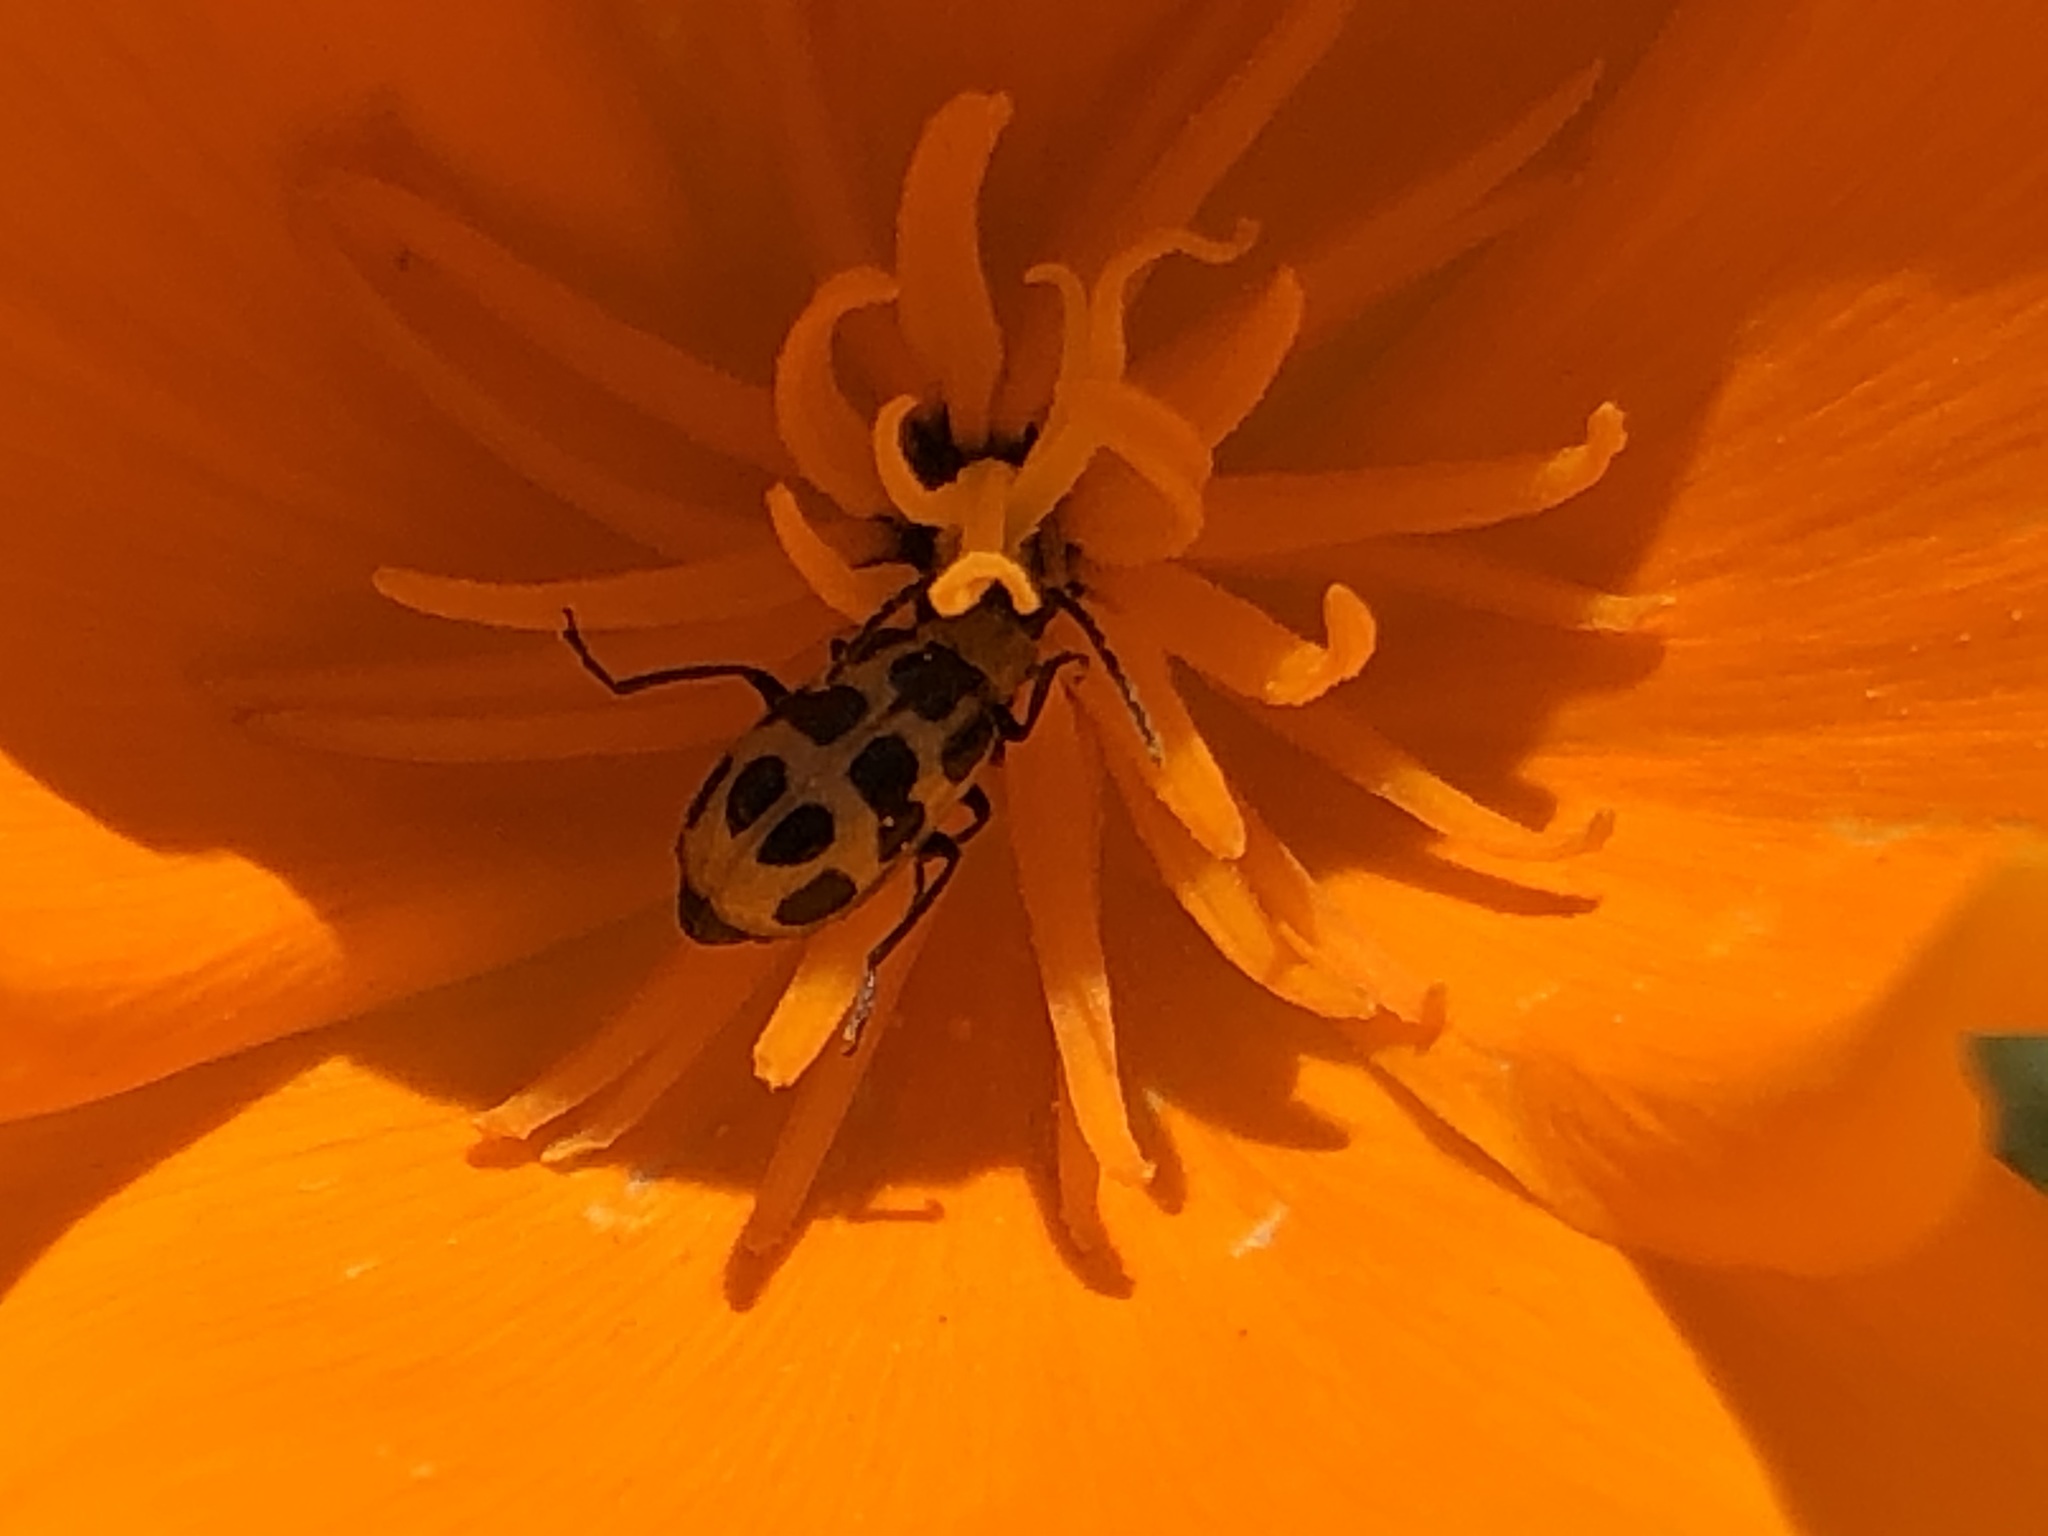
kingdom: Animalia
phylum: Arthropoda
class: Insecta
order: Coleoptera
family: Chrysomelidae
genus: Diabrotica
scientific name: Diabrotica undecimpunctata
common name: Spotted cucumber beetle
